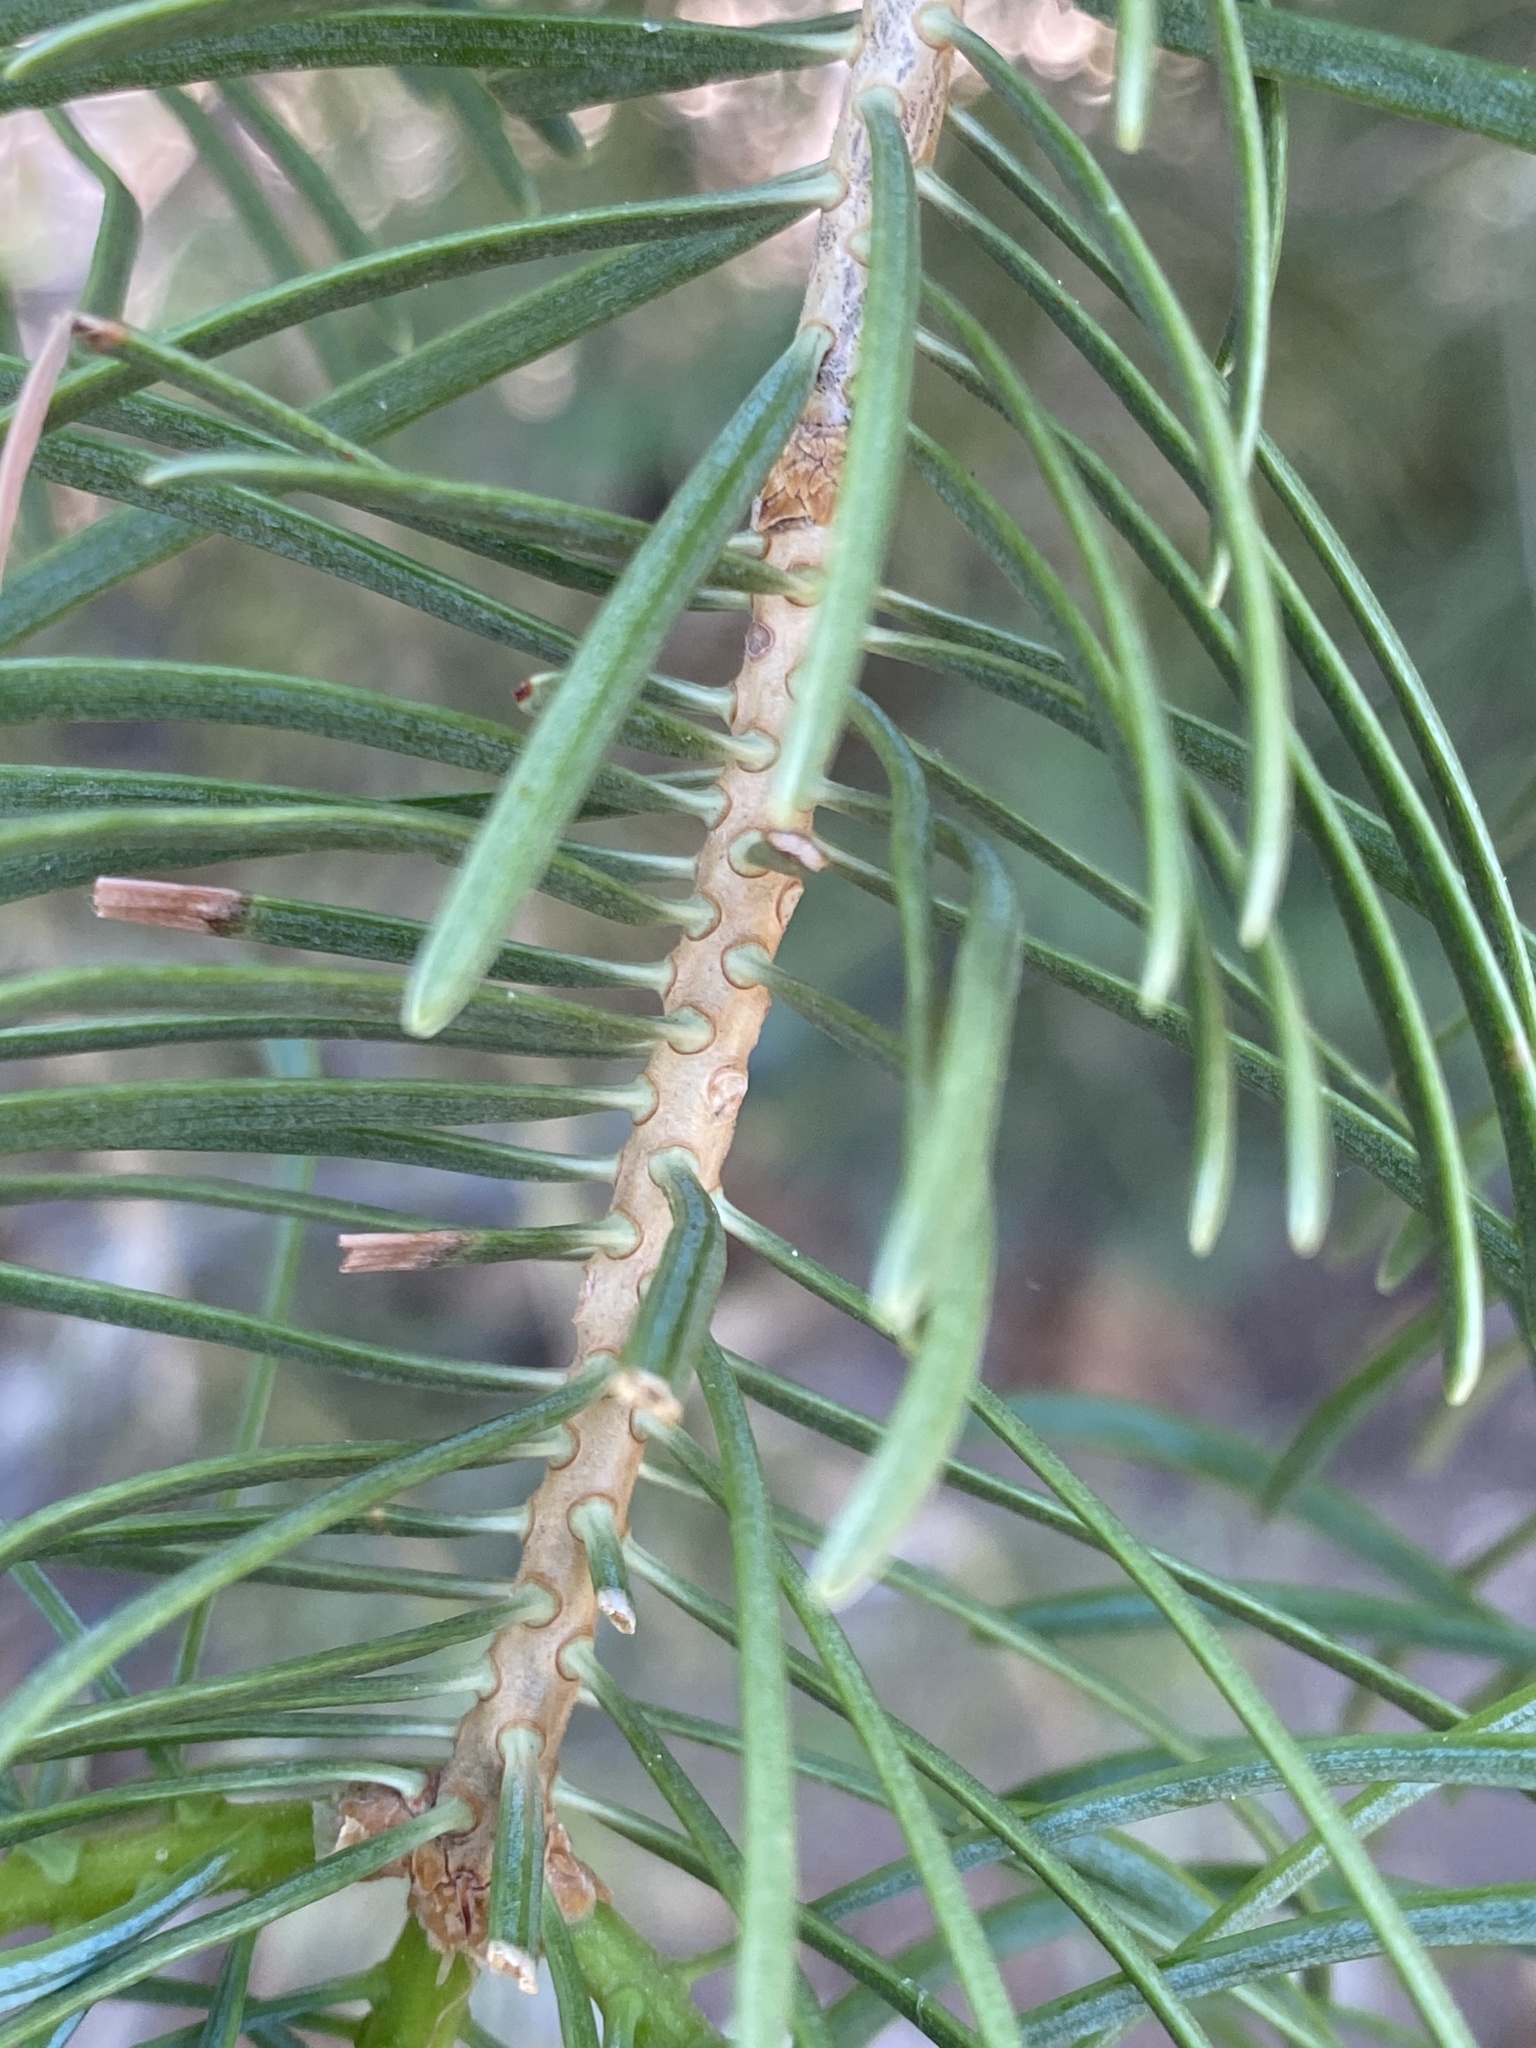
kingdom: Plantae
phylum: Tracheophyta
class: Pinopsida
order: Pinales
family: Pinaceae
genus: Abies
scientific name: Abies concolor
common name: Colorado fir
